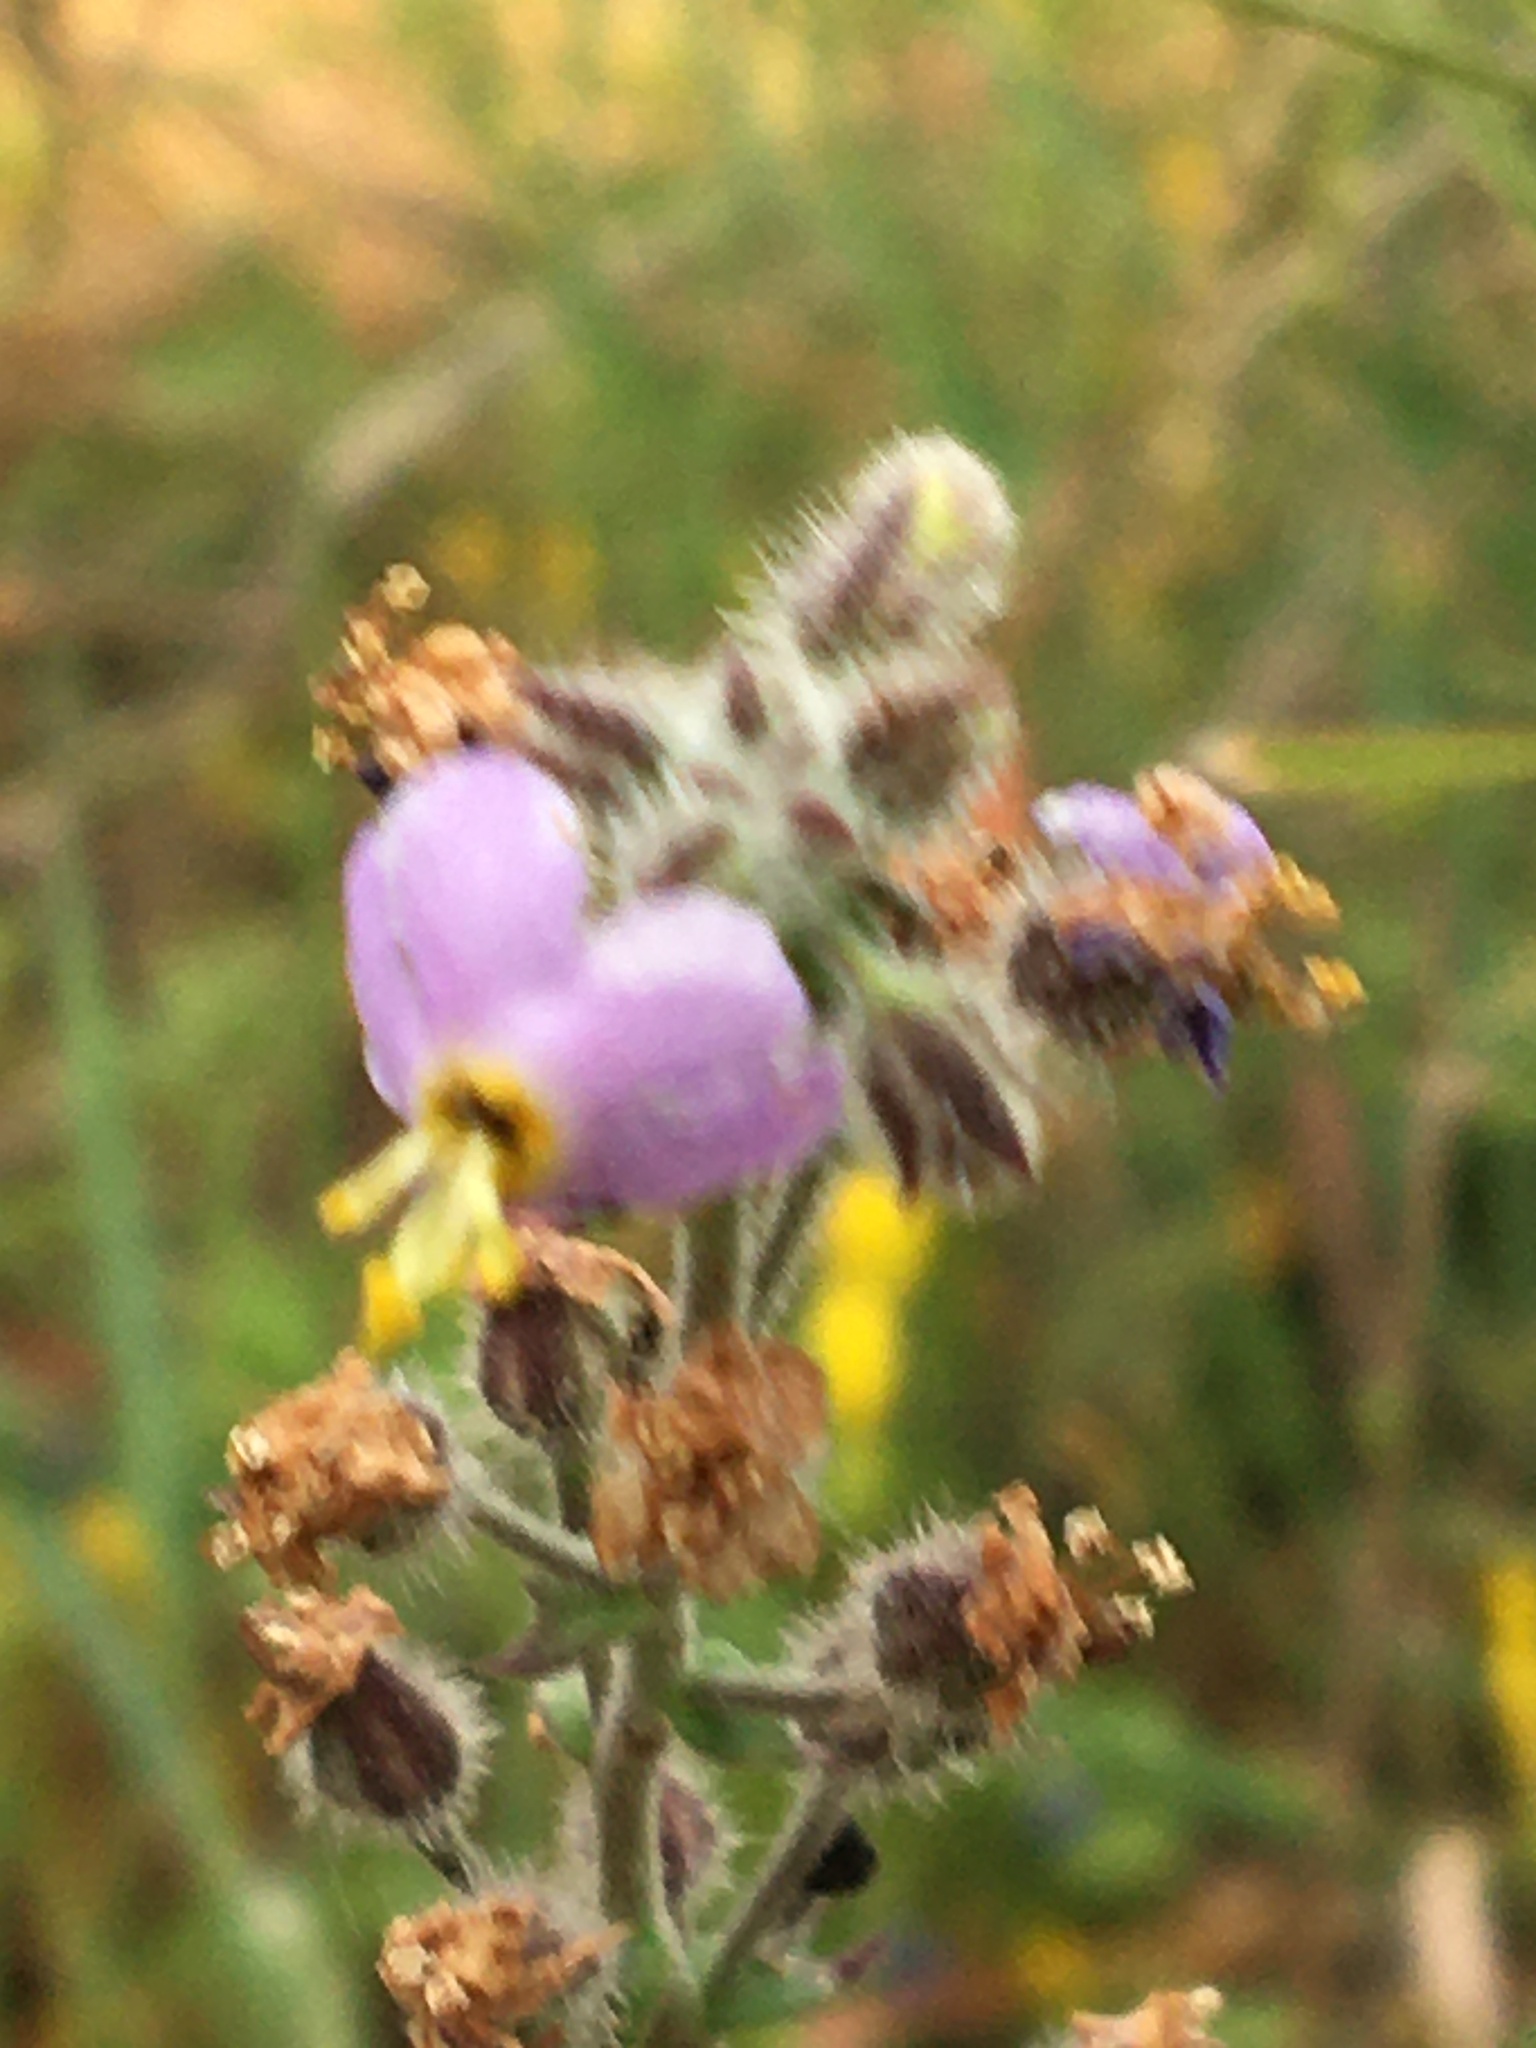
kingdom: Plantae
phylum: Tracheophyta
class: Magnoliopsida
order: Lamiales
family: Scrophulariaceae
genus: Chaenostoma
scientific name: Chaenostoma caeruleum
